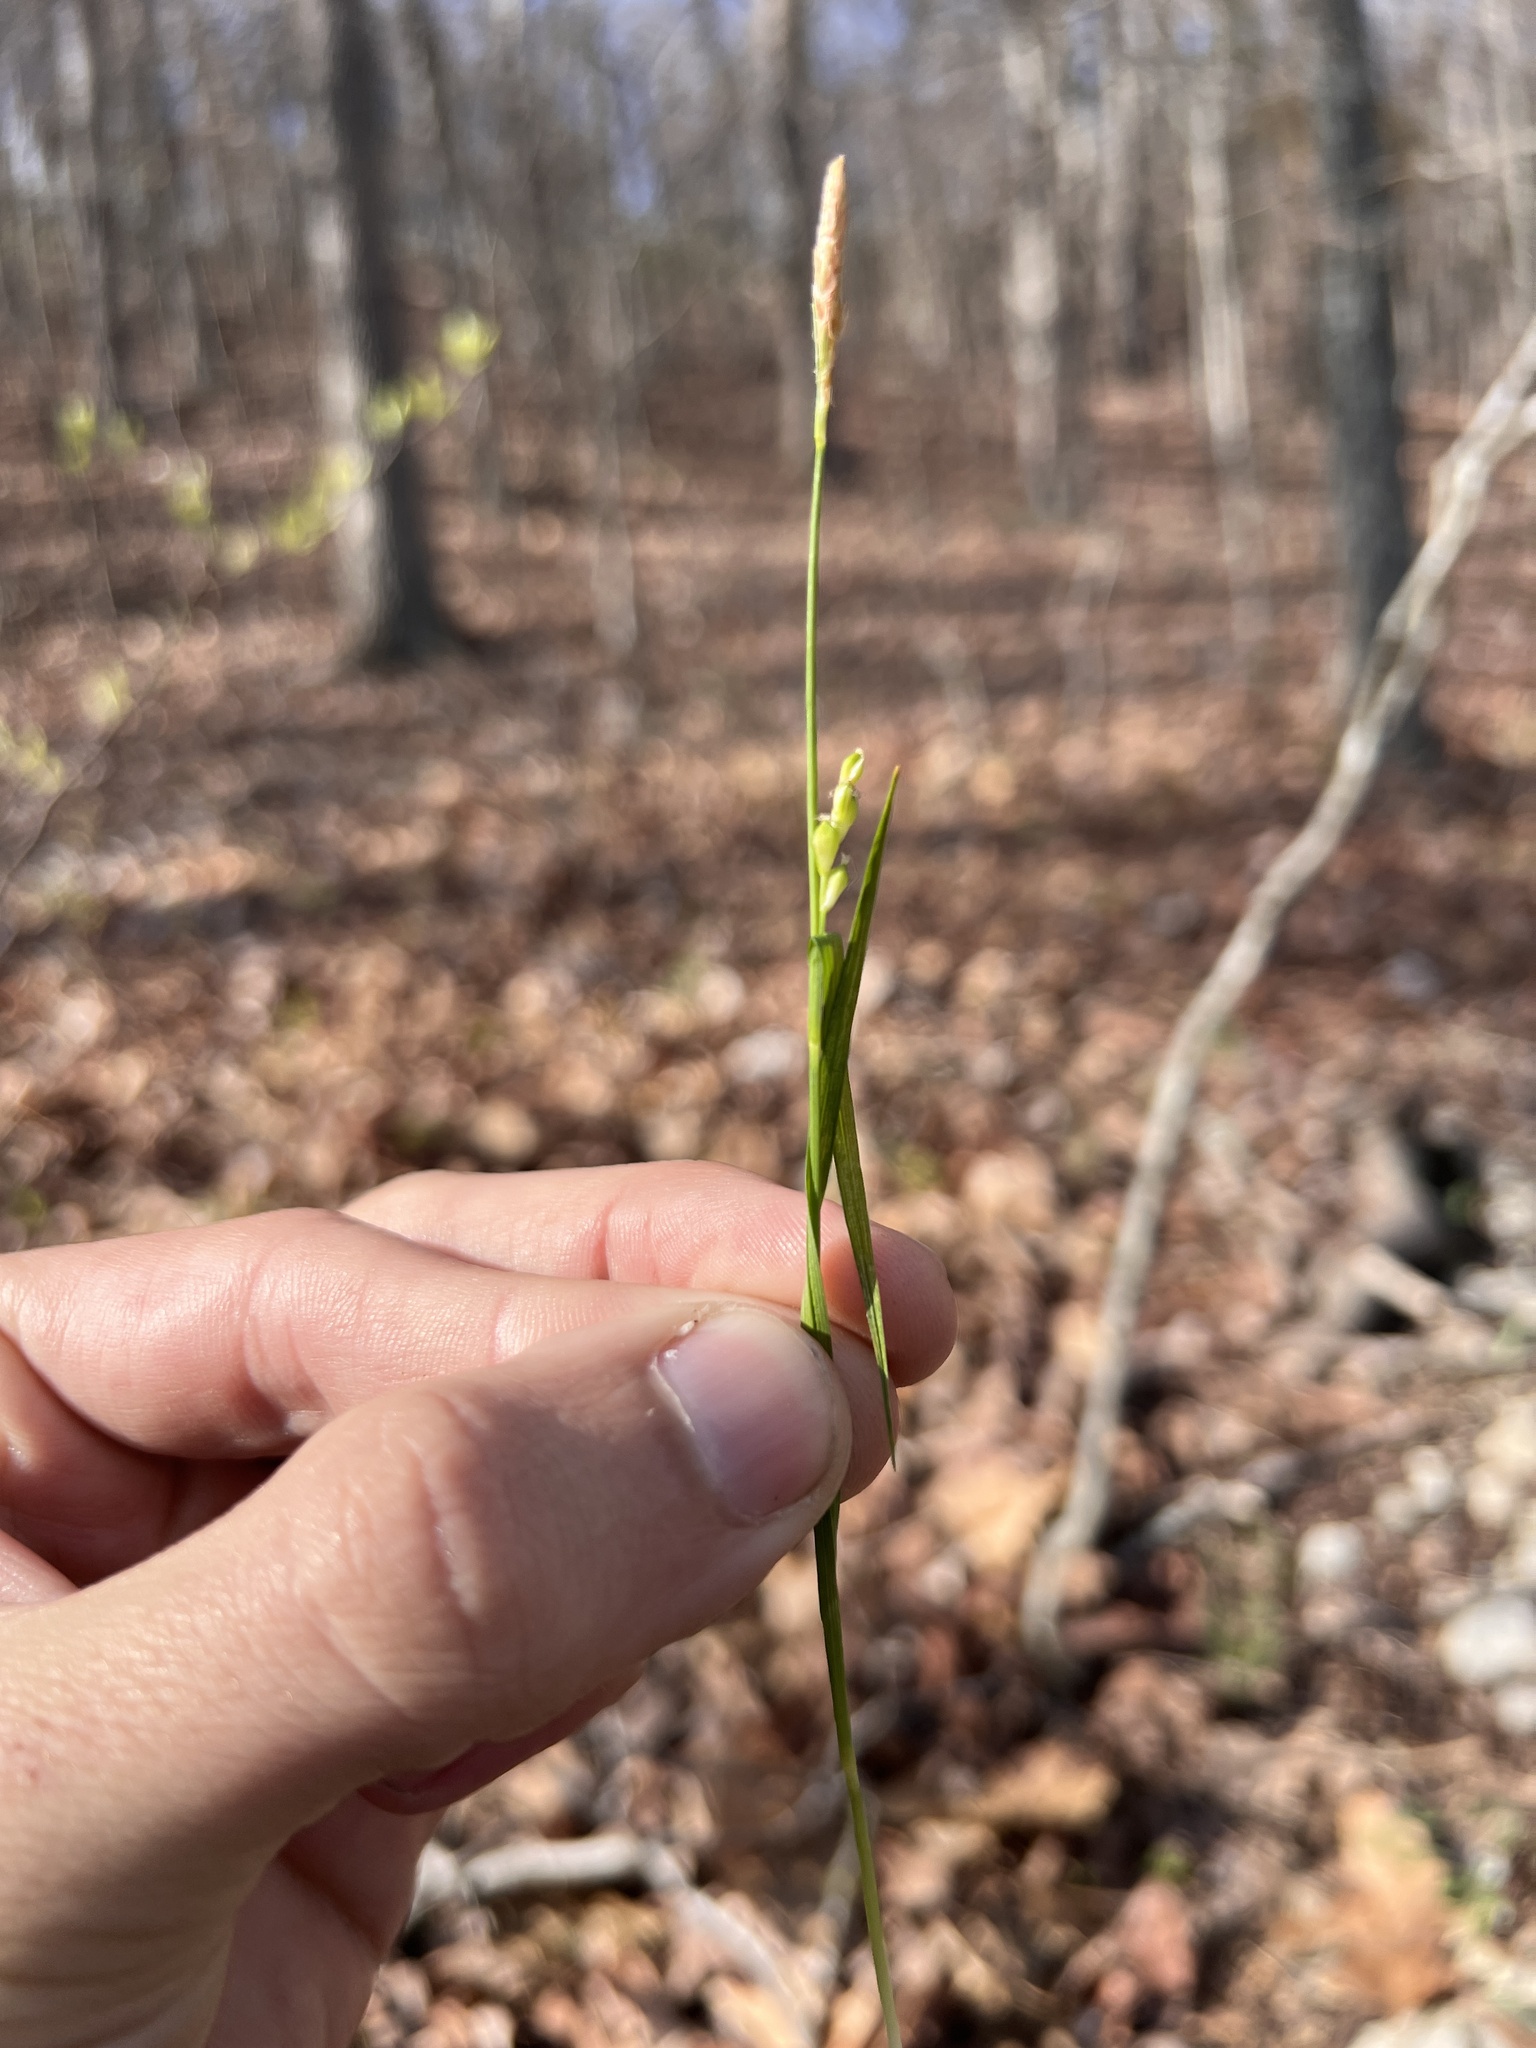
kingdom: Plantae
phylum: Tracheophyta
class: Liliopsida
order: Poales
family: Cyperaceae
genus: Carex
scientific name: Carex oligocarpa
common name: Eastern few-fruited sedge
